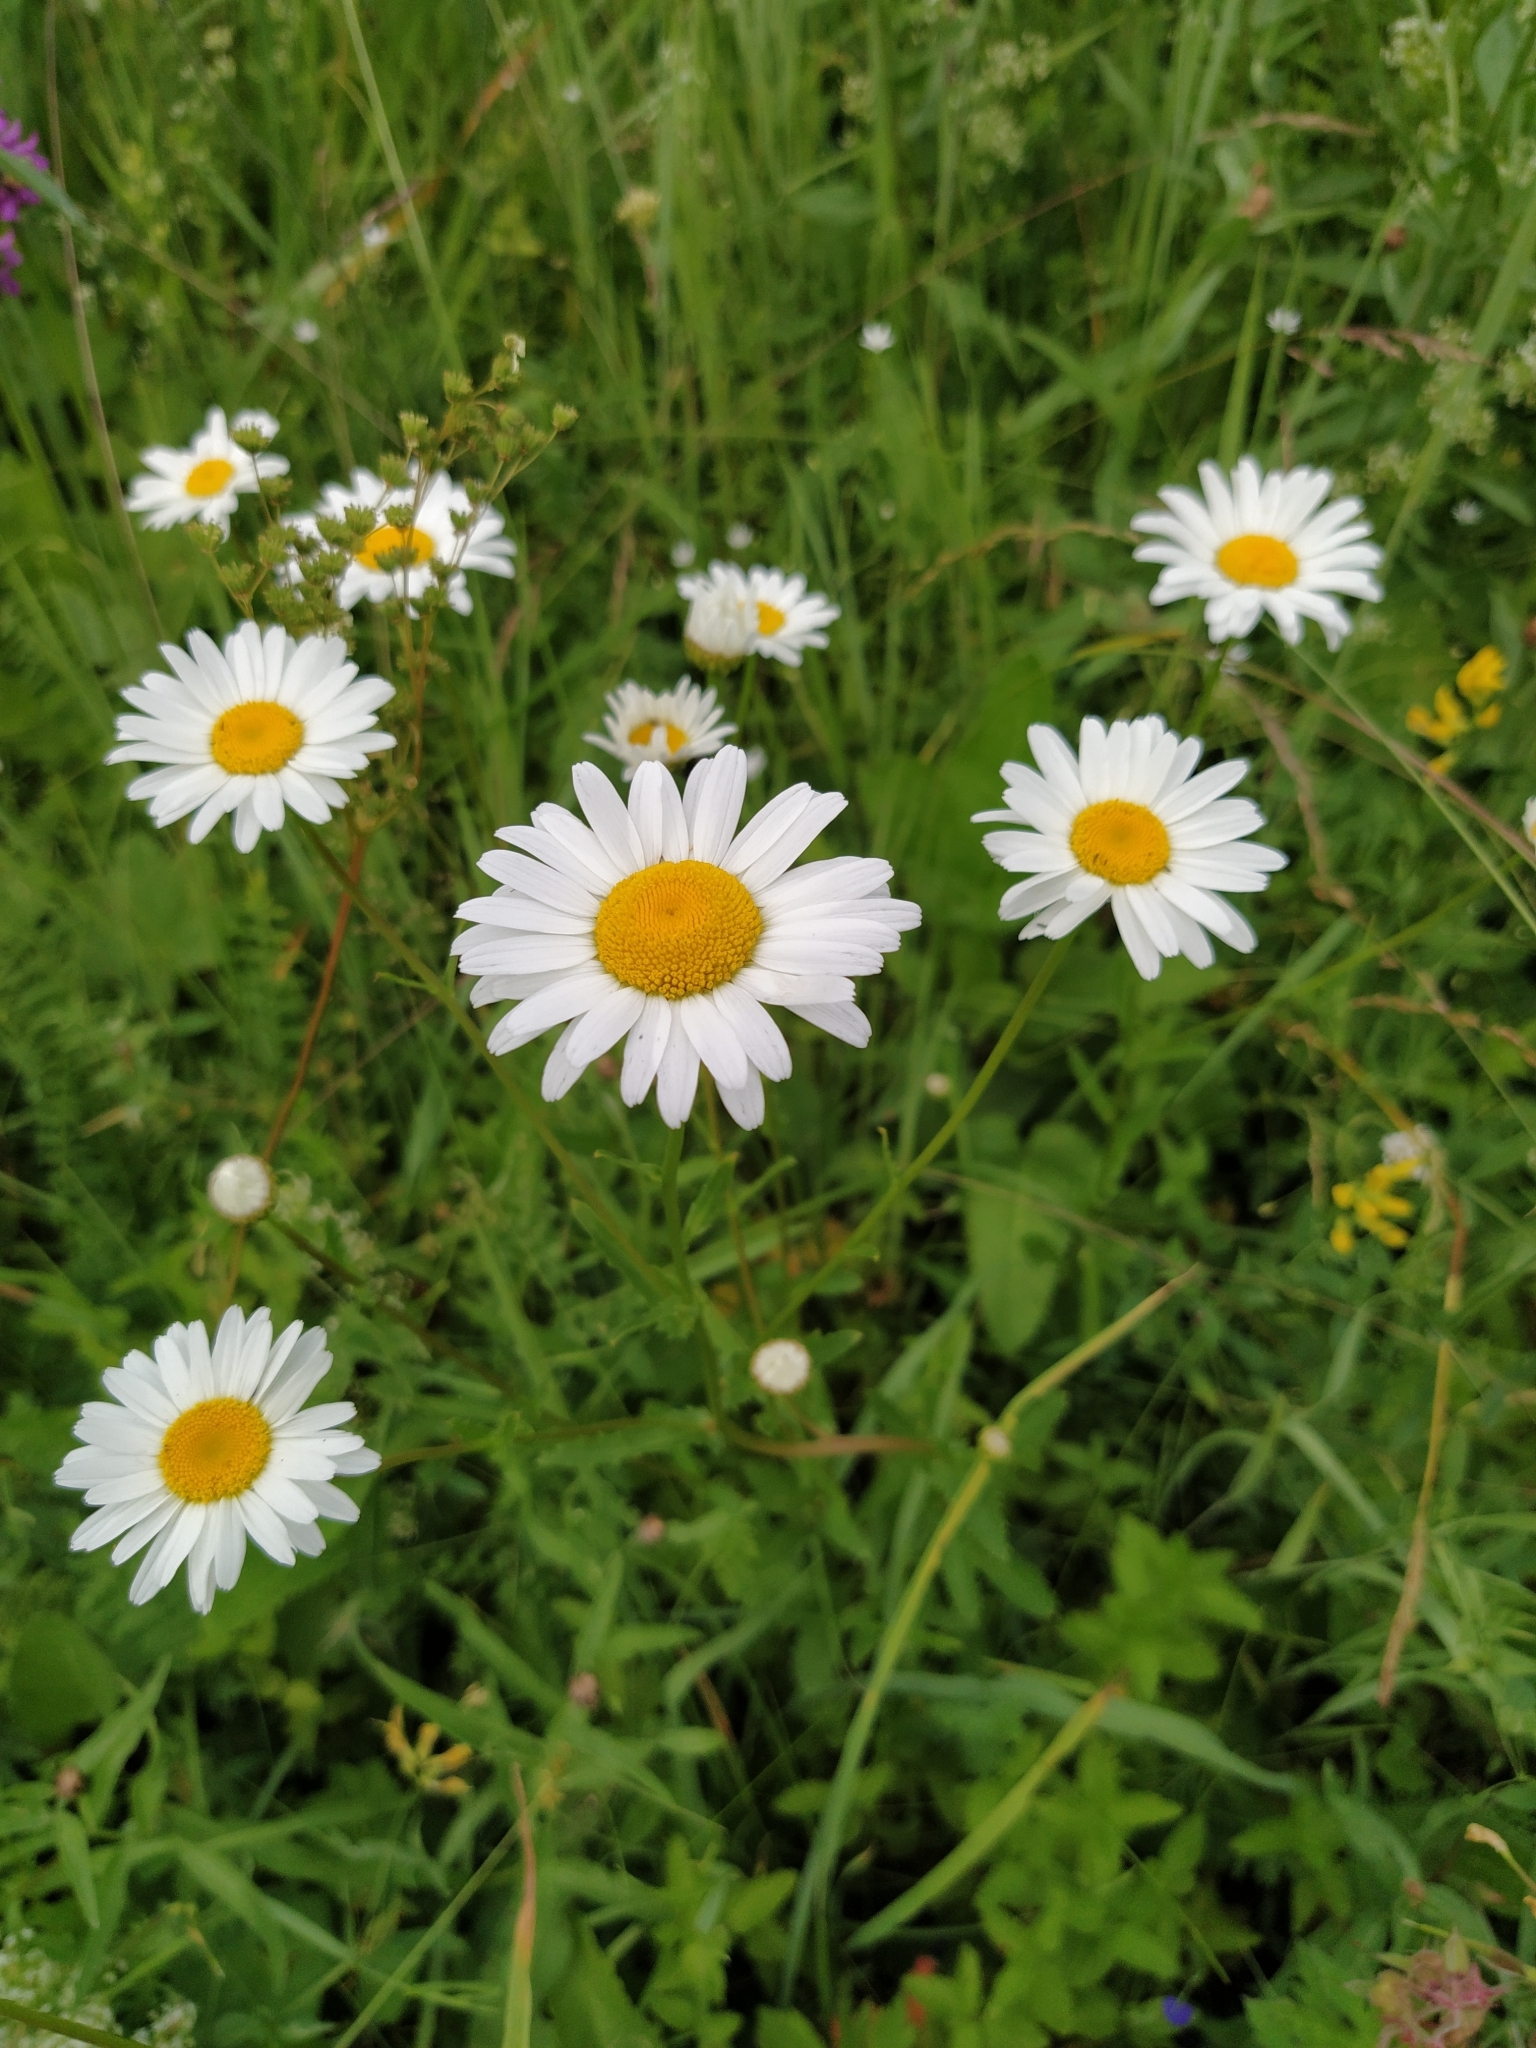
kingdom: Plantae
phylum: Tracheophyta
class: Magnoliopsida
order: Asterales
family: Asteraceae
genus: Leucanthemum
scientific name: Leucanthemum vulgare
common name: Oxeye daisy
